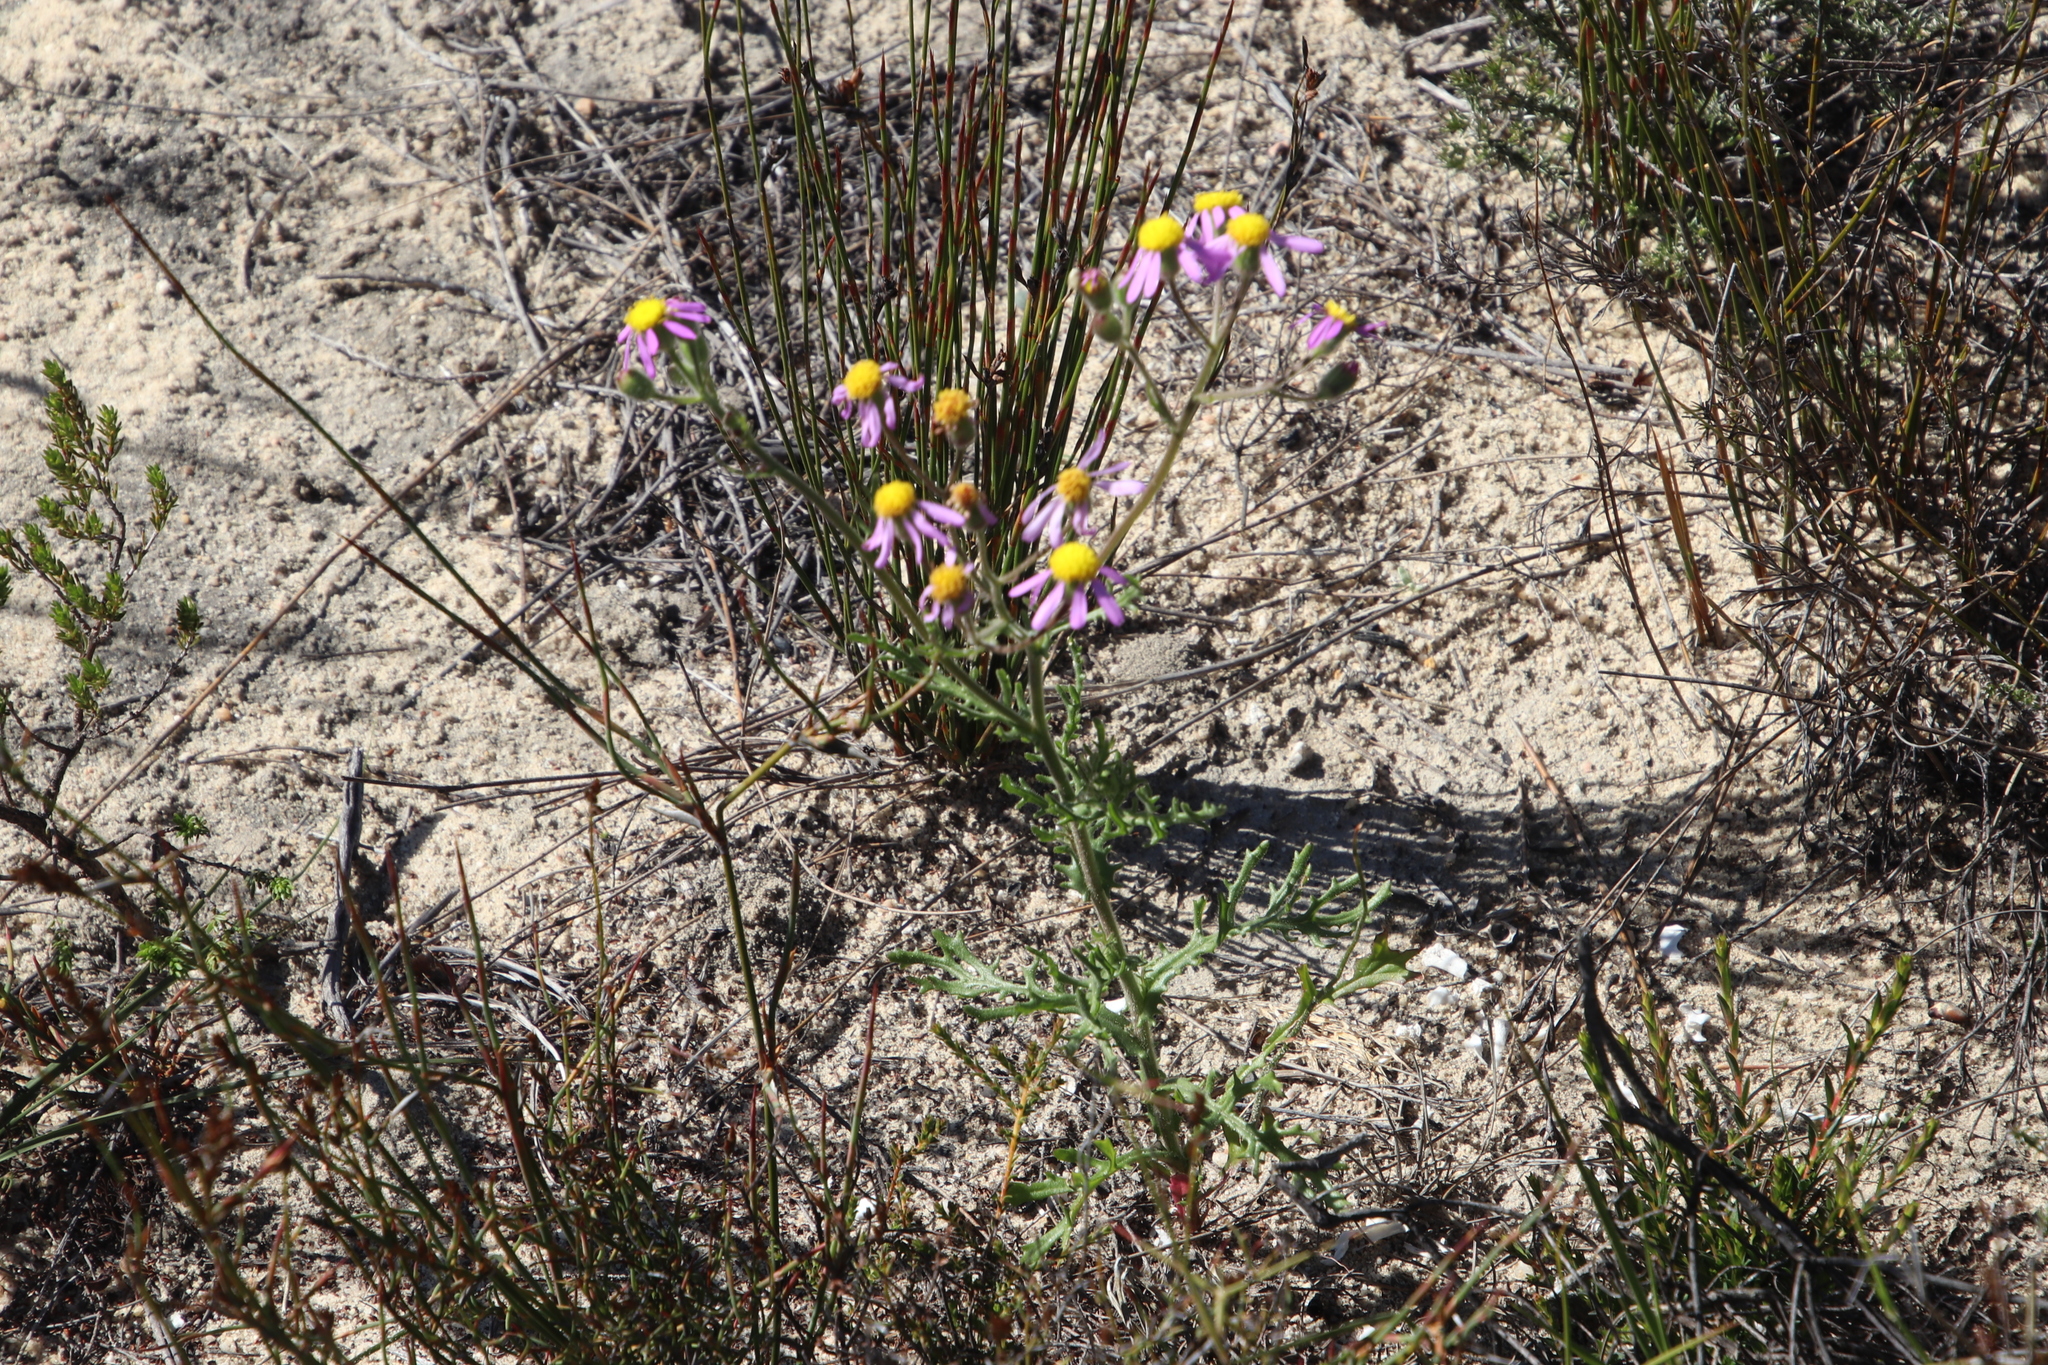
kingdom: Plantae
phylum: Tracheophyta
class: Magnoliopsida
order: Asterales
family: Asteraceae
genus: Senecio
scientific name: Senecio arenarius
